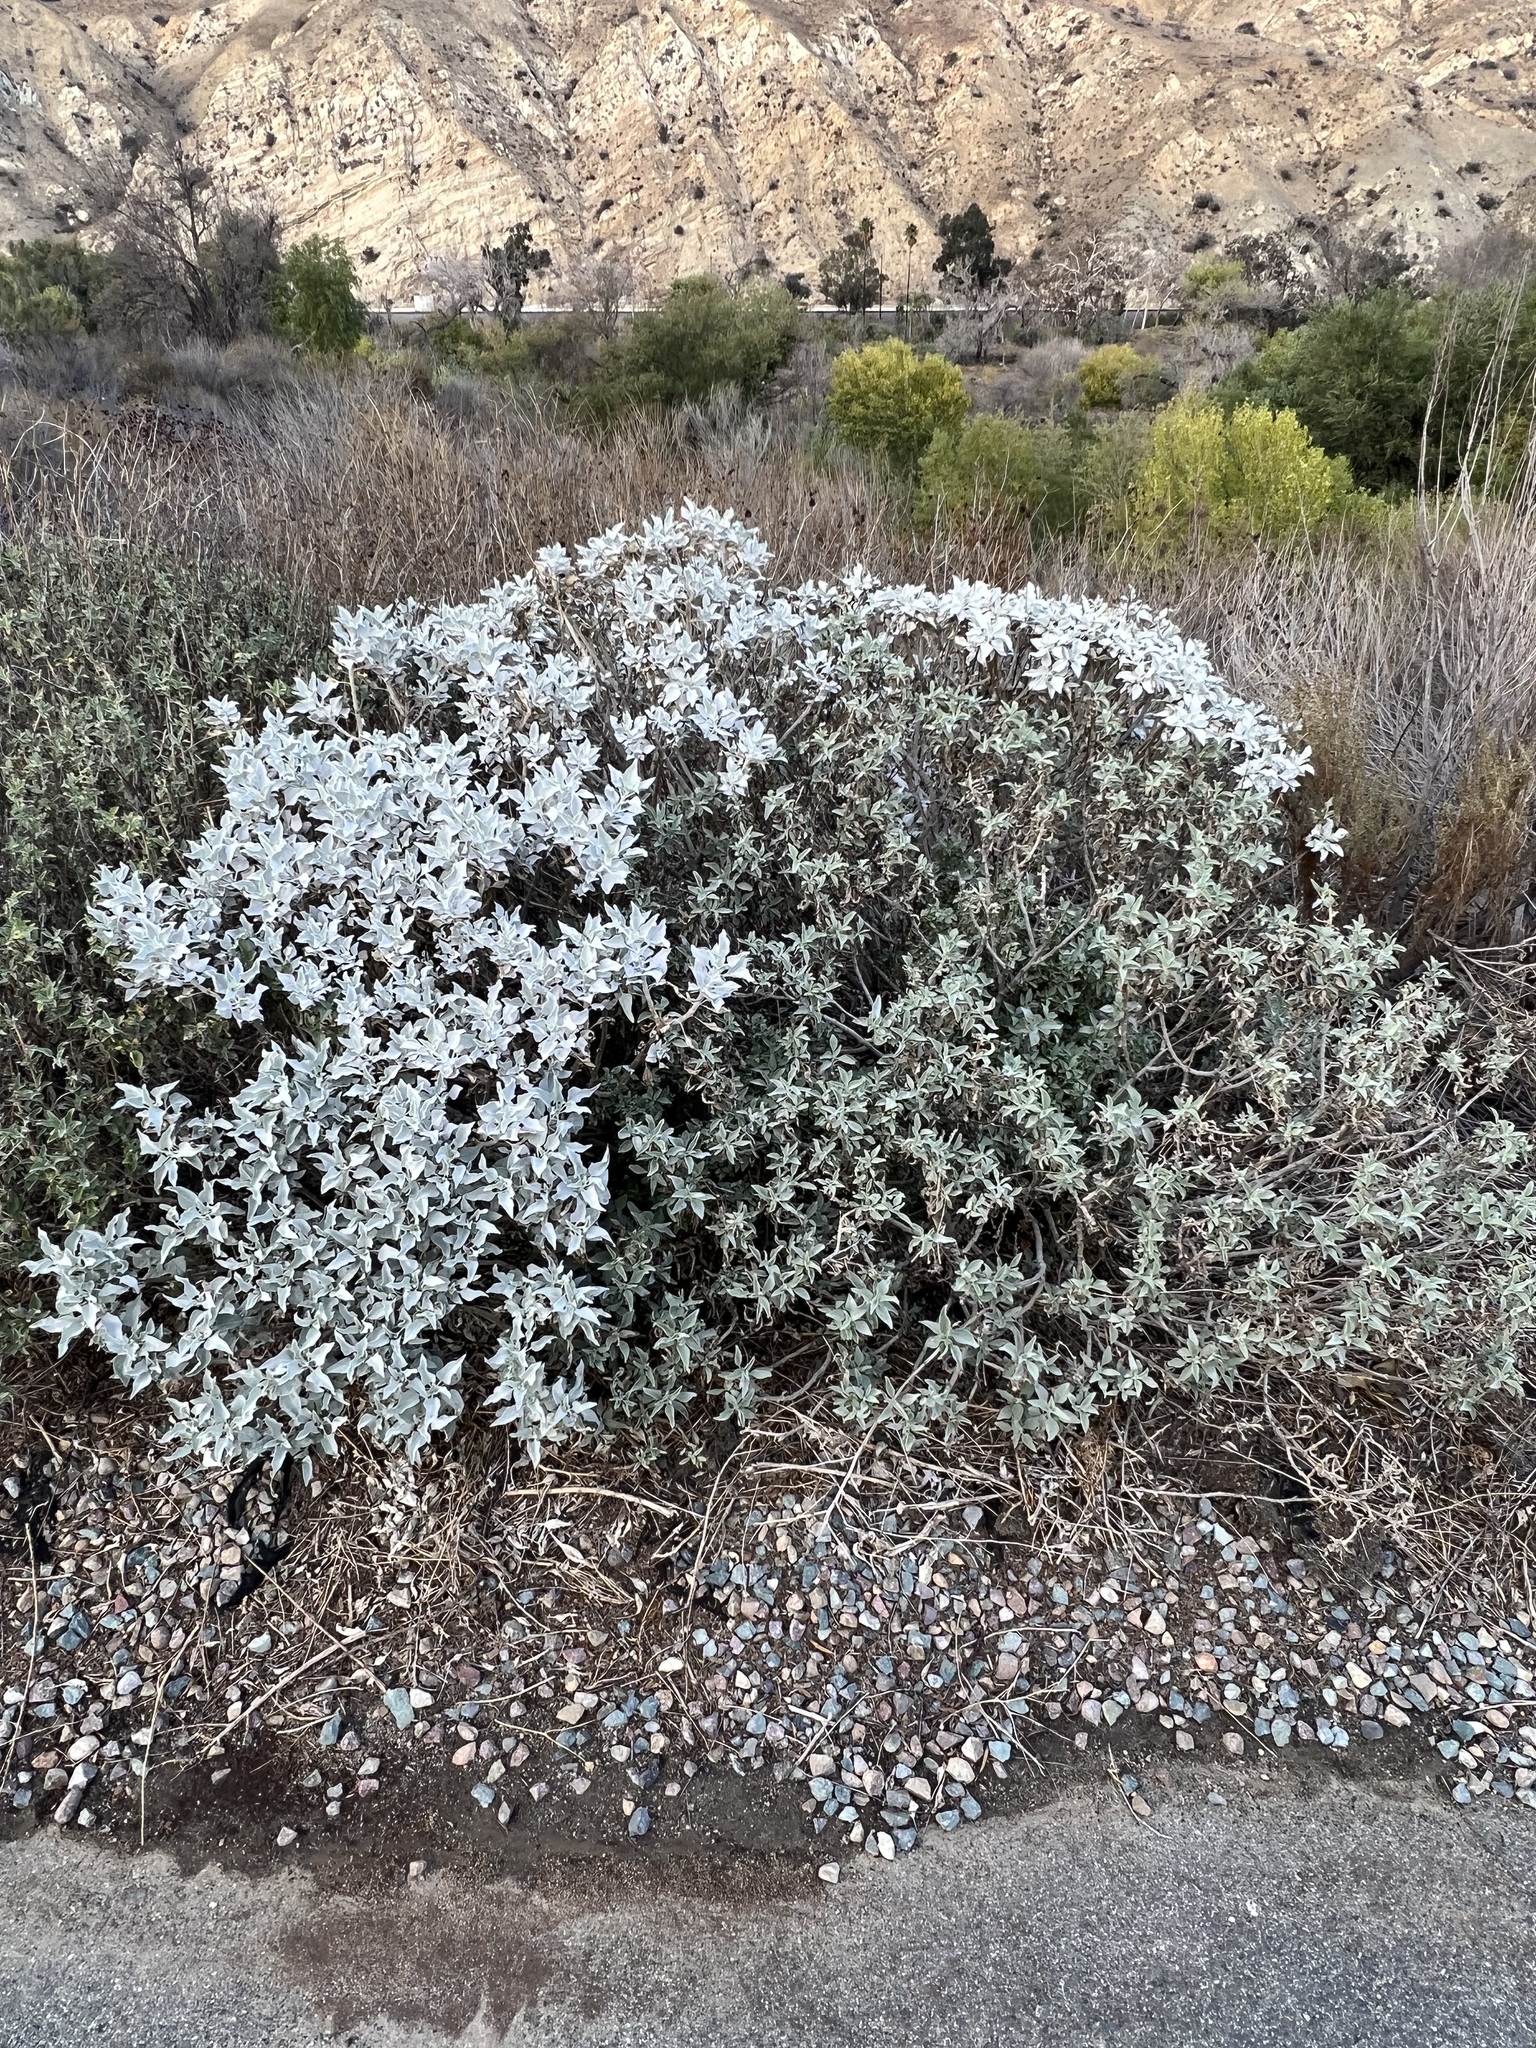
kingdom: Plantae
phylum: Tracheophyta
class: Magnoliopsida
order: Asterales
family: Asteraceae
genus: Encelia
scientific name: Encelia
